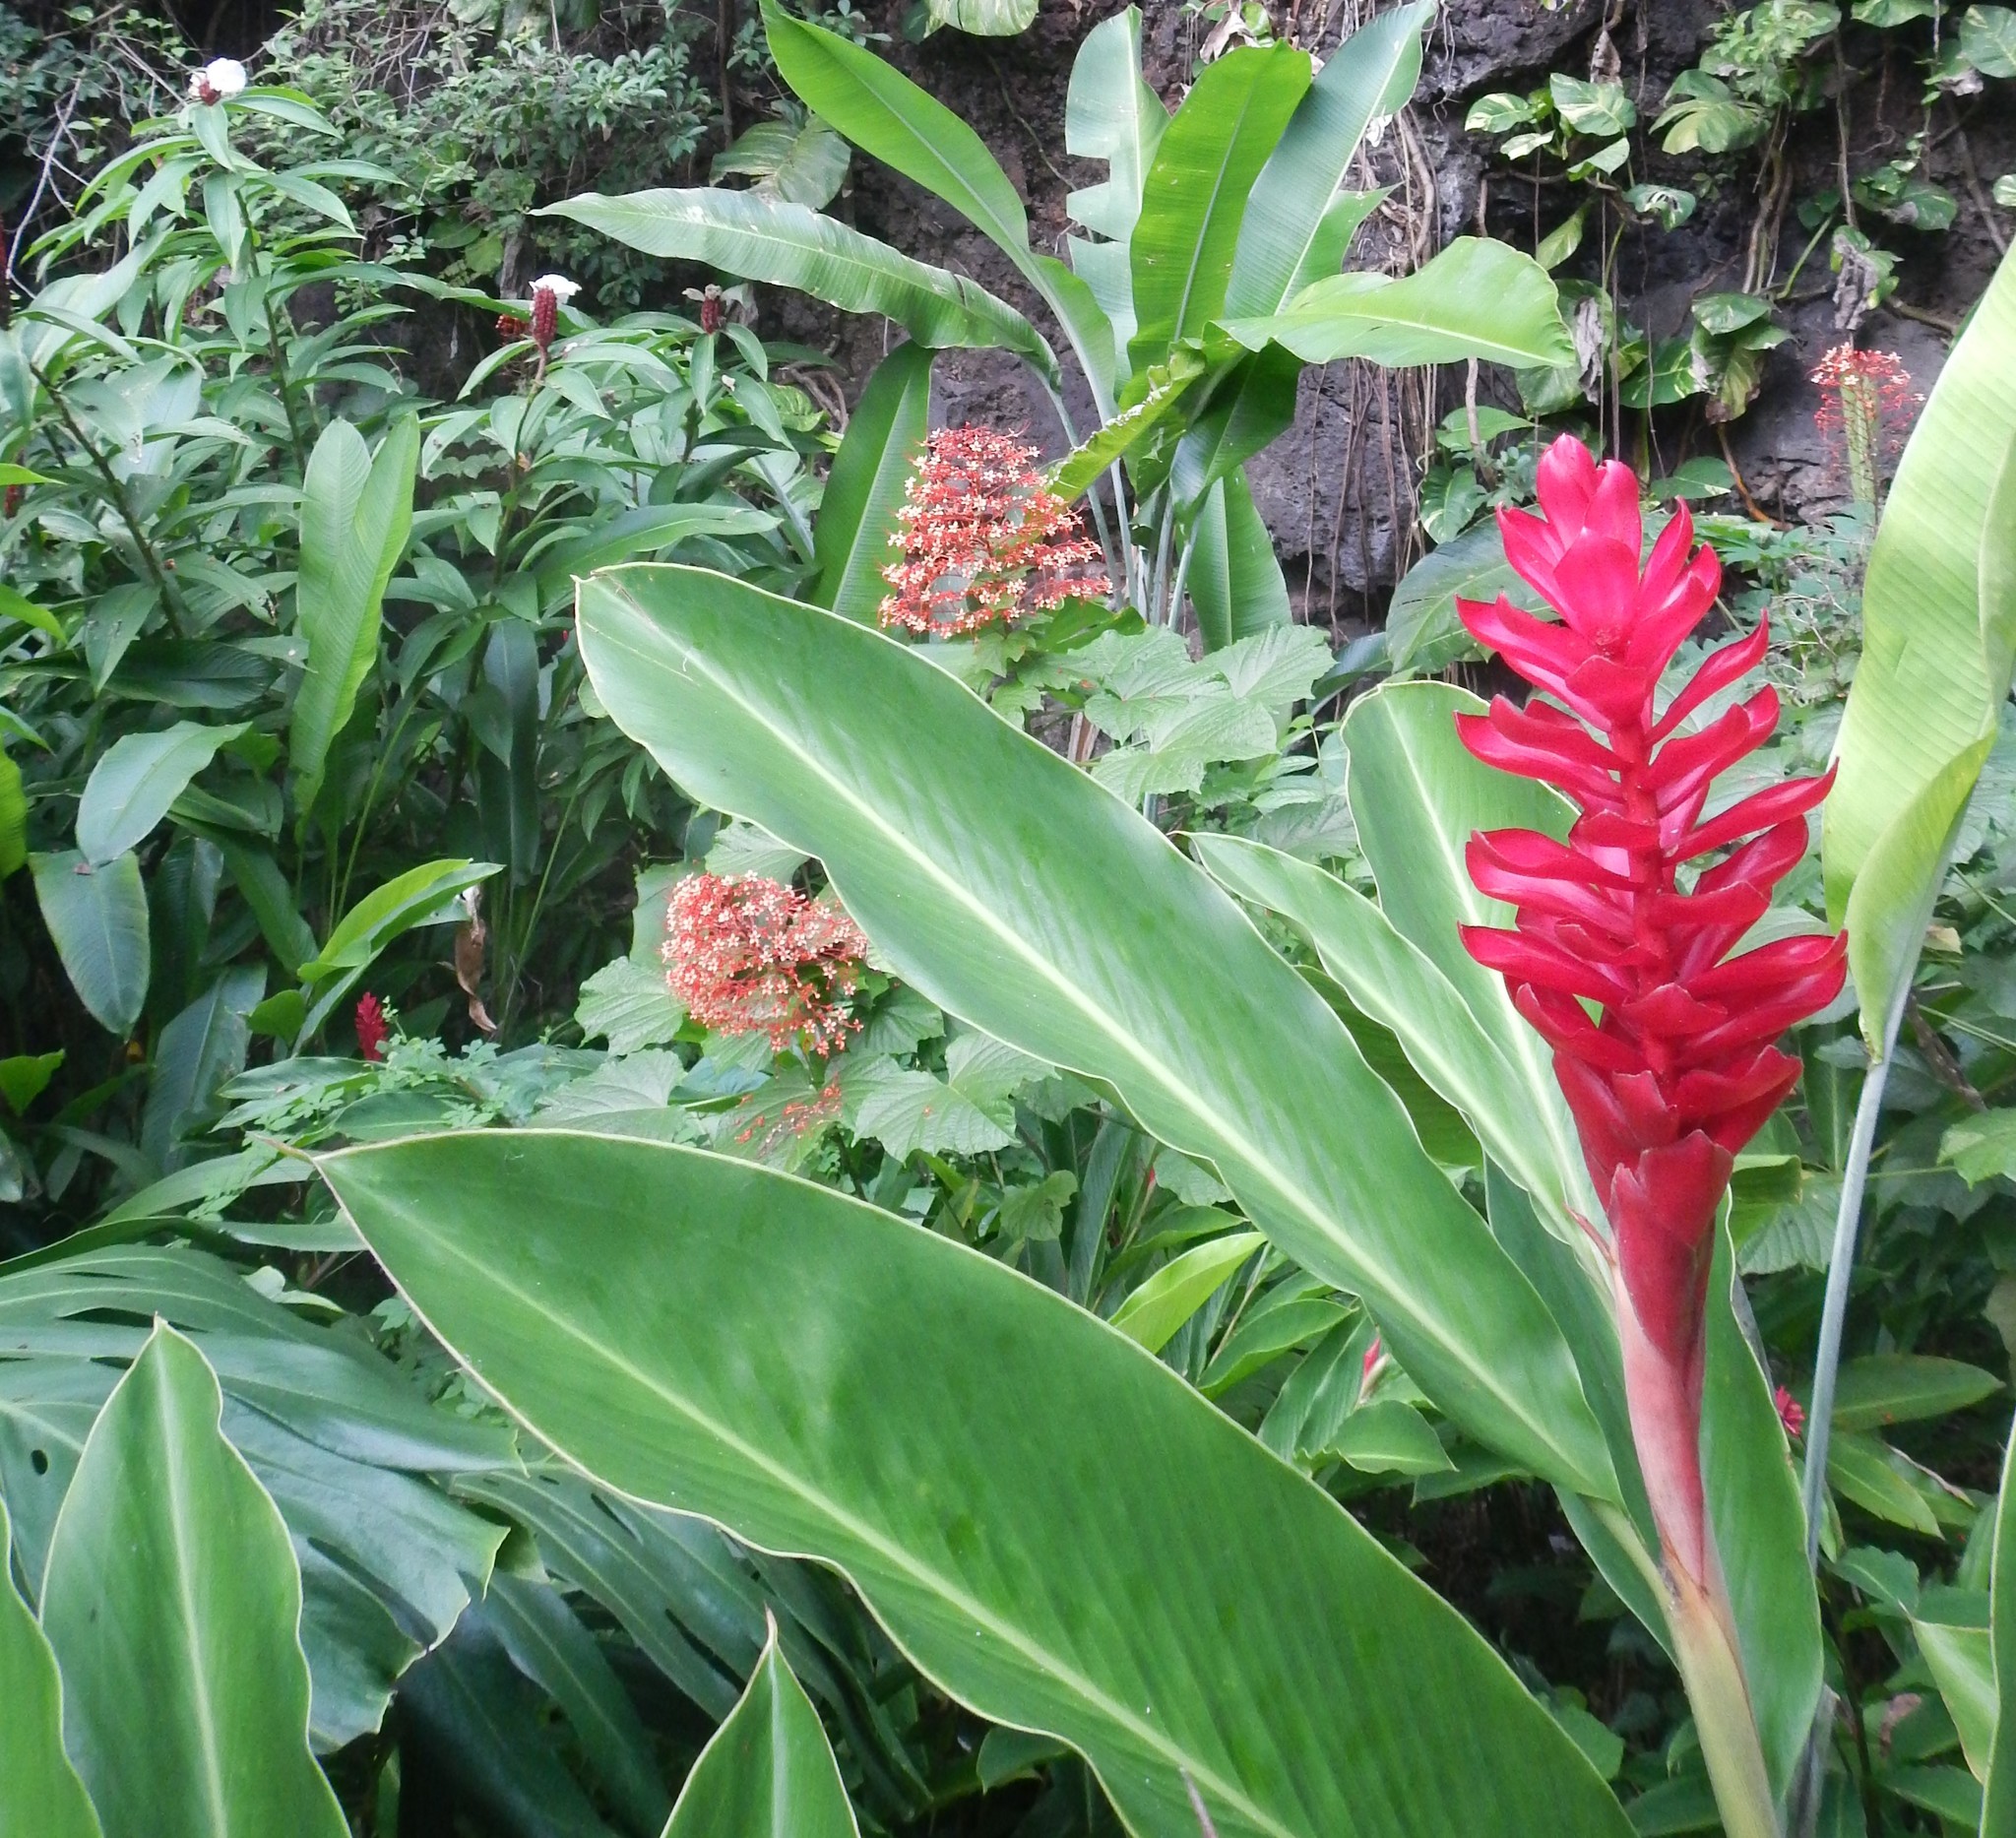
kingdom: Plantae
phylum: Tracheophyta
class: Liliopsida
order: Zingiberales
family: Zingiberaceae
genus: Alpinia
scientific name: Alpinia purpurata
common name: Red ginger
